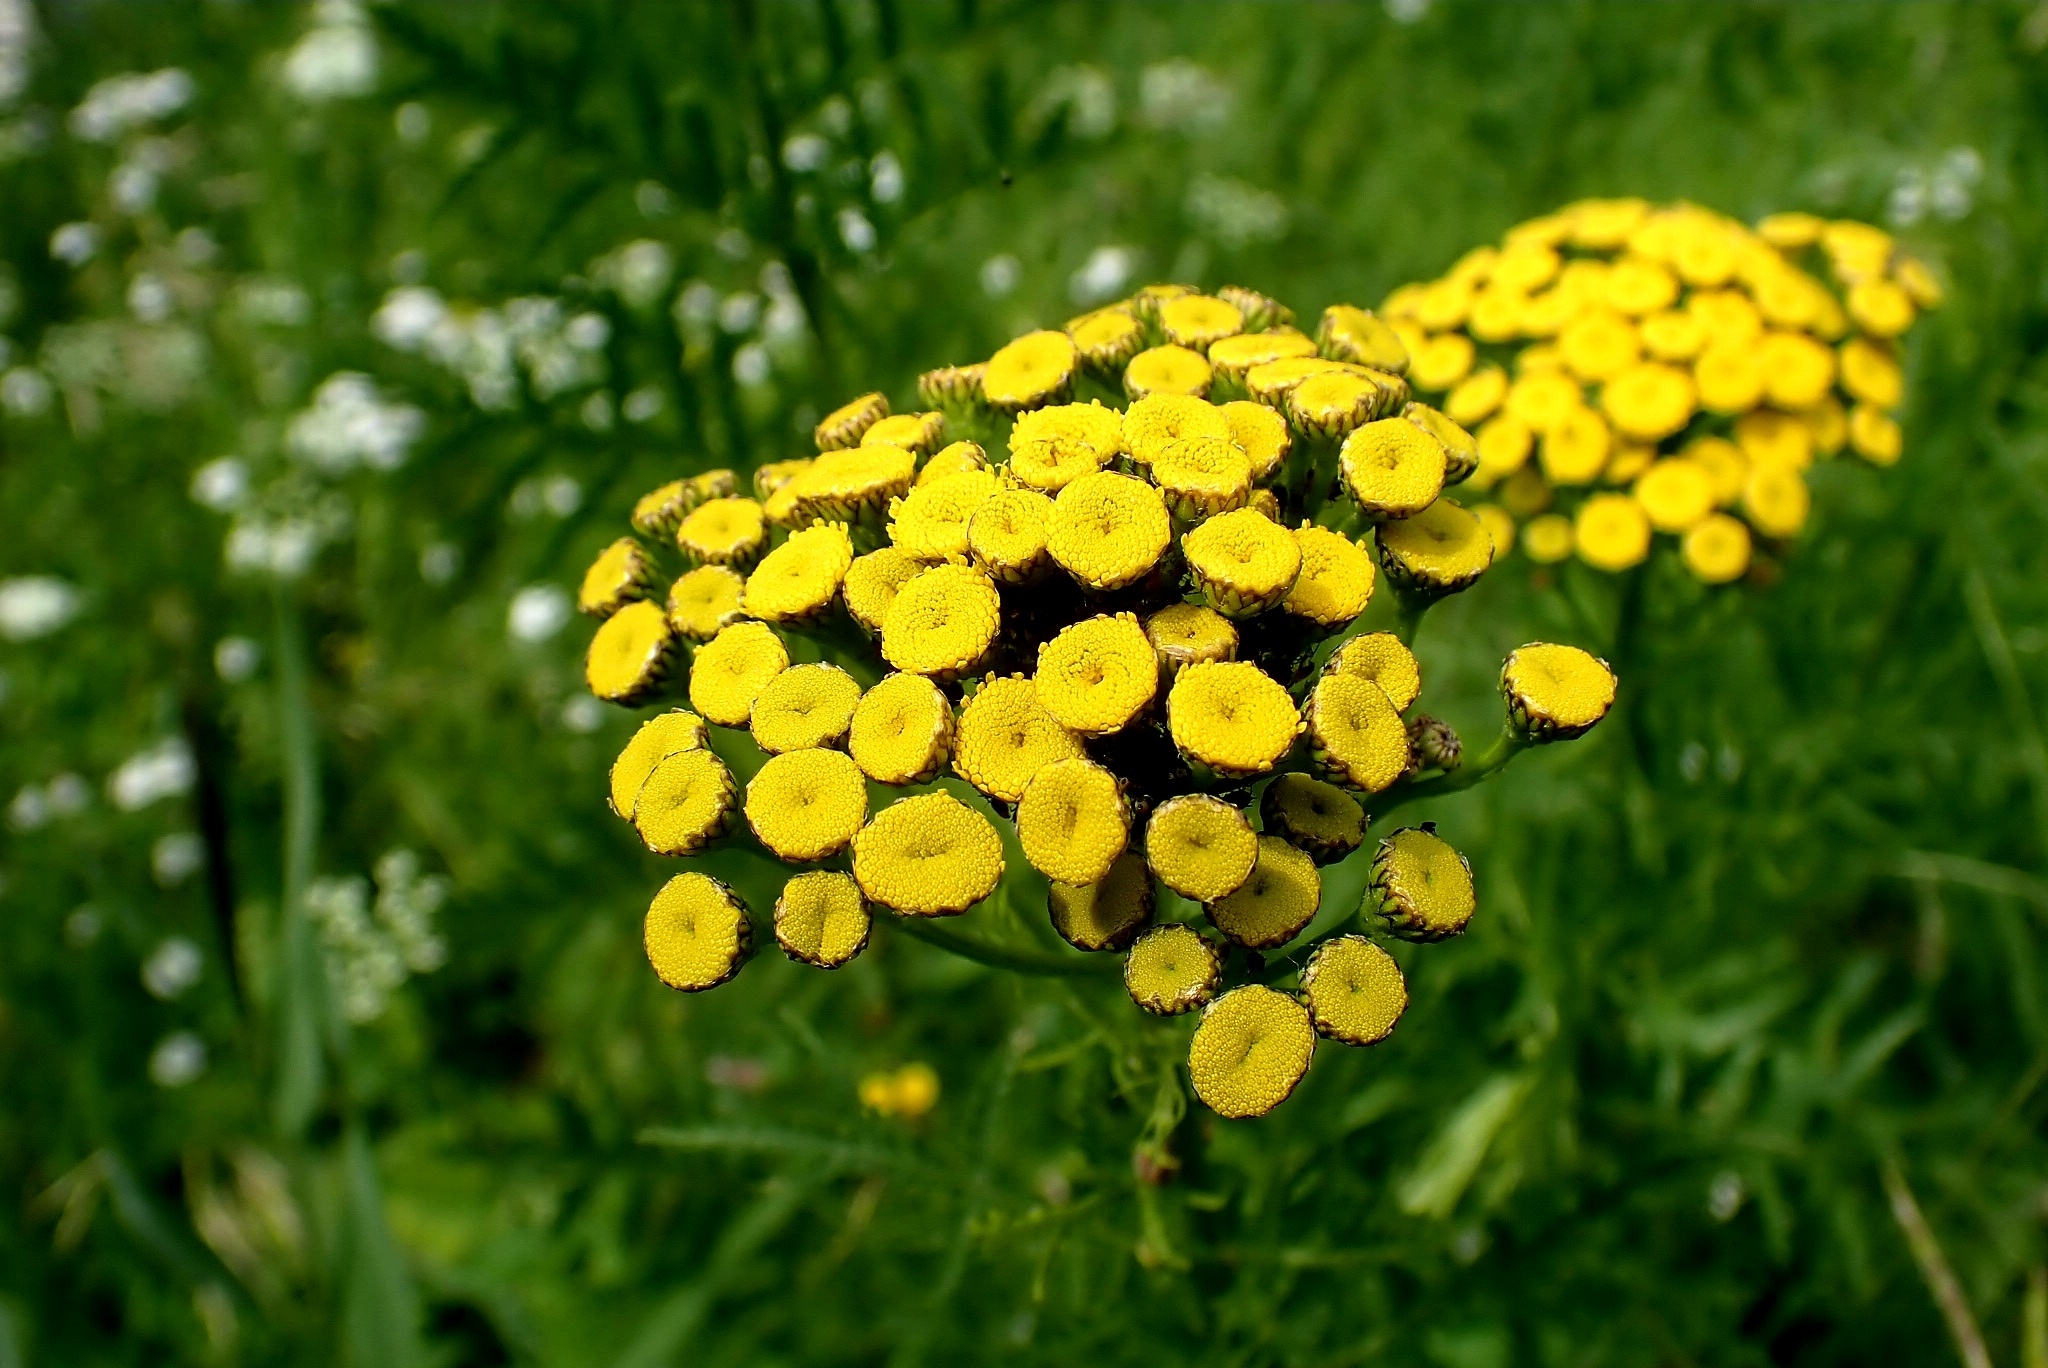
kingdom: Plantae
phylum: Tracheophyta
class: Magnoliopsida
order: Asterales
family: Asteraceae
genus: Tanacetum
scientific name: Tanacetum vulgare
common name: Common tansy
